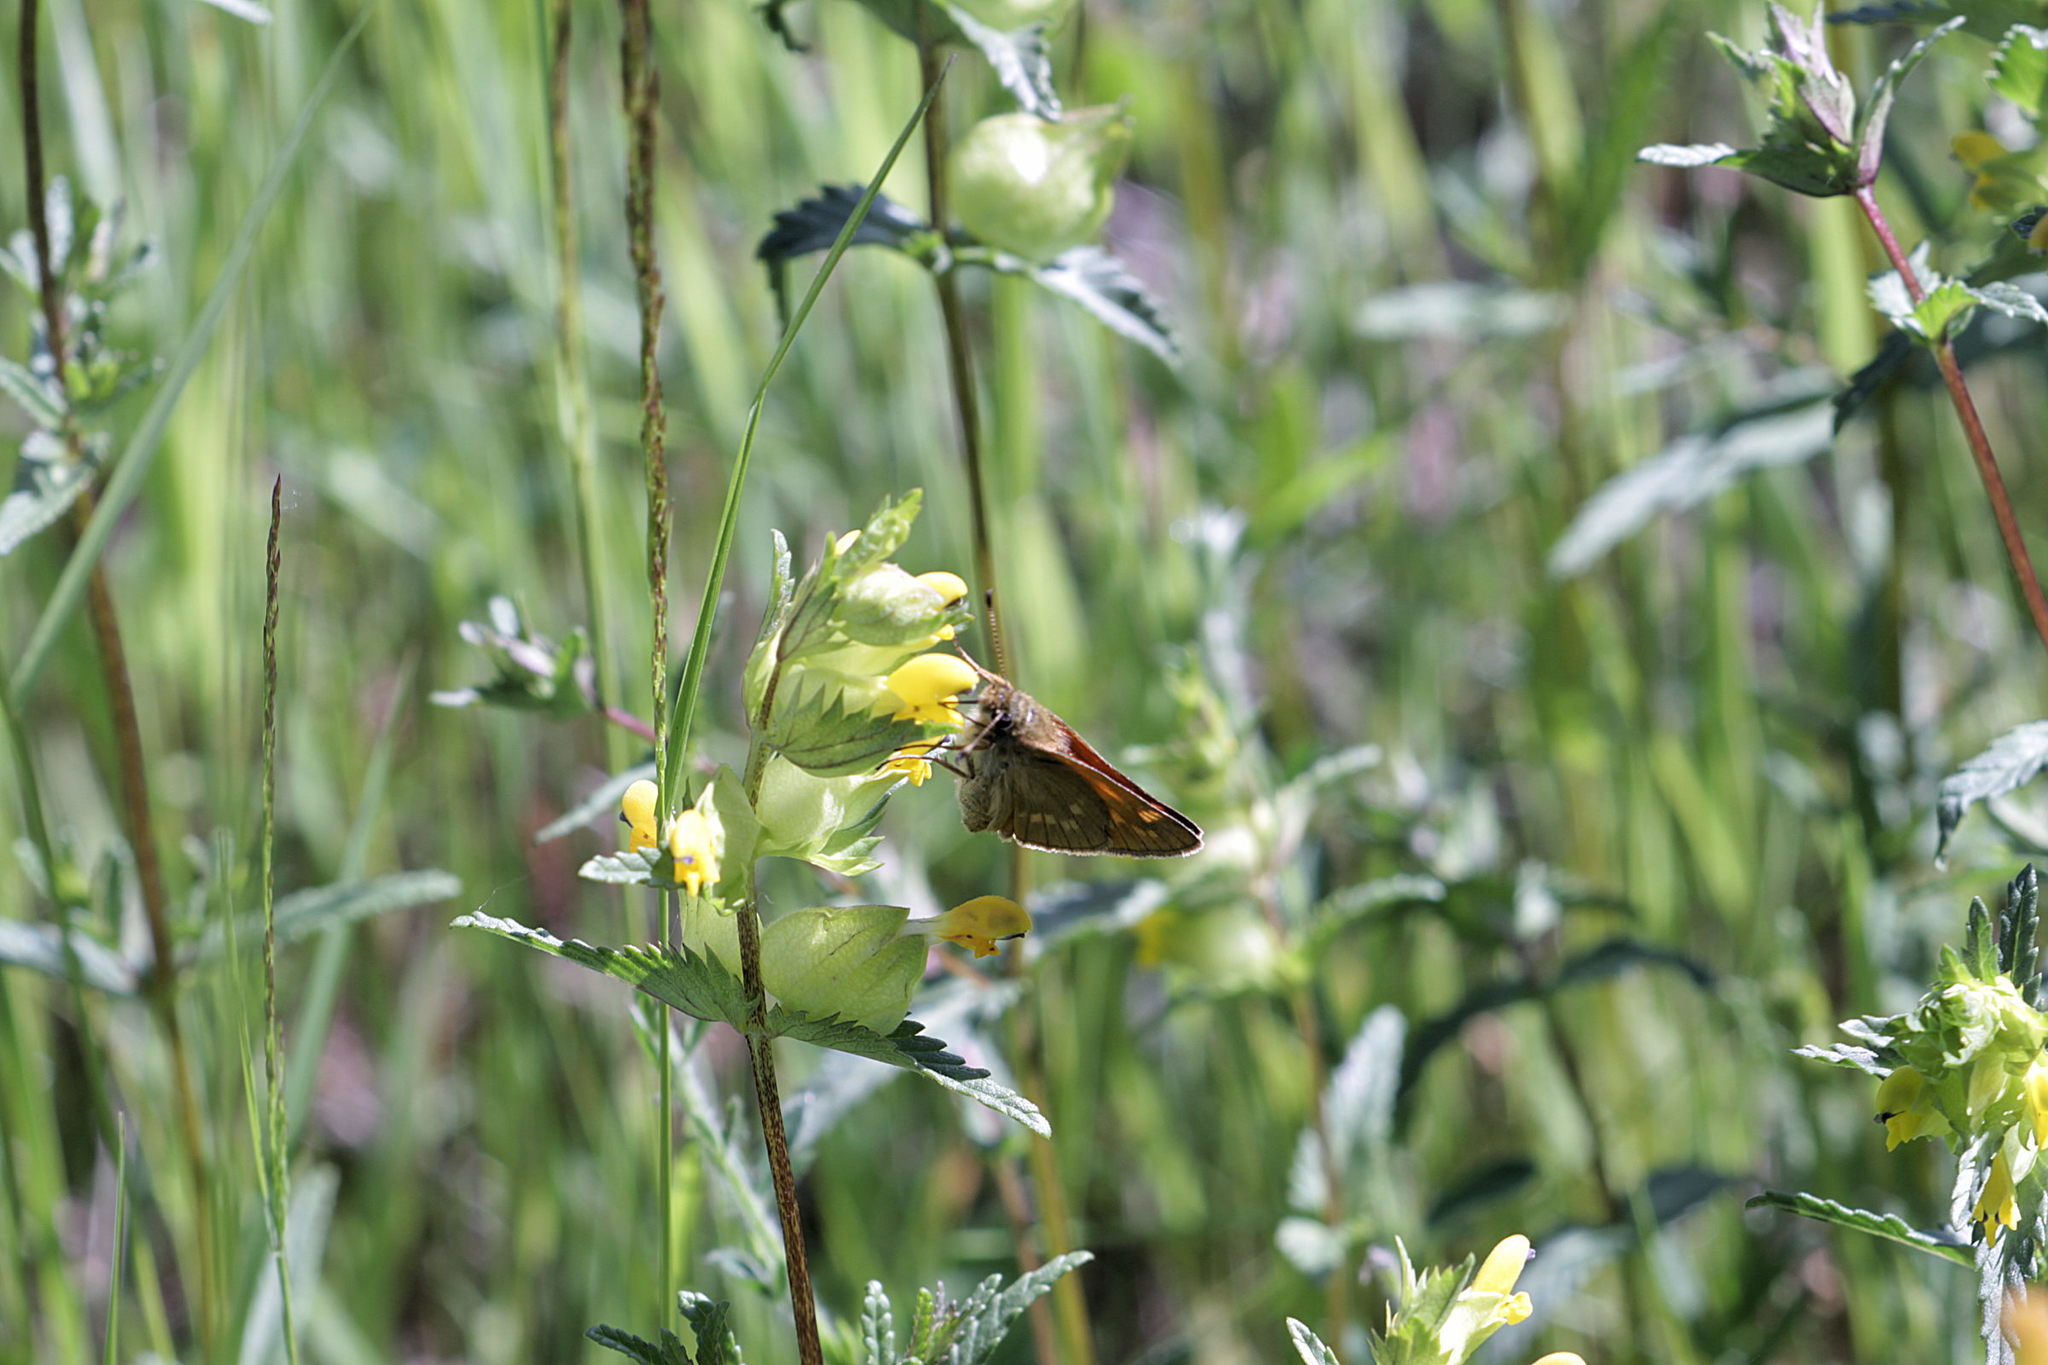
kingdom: Animalia
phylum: Arthropoda
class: Insecta
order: Lepidoptera
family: Hesperiidae
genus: Ochlodes
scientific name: Ochlodes venata
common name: Large skipper
